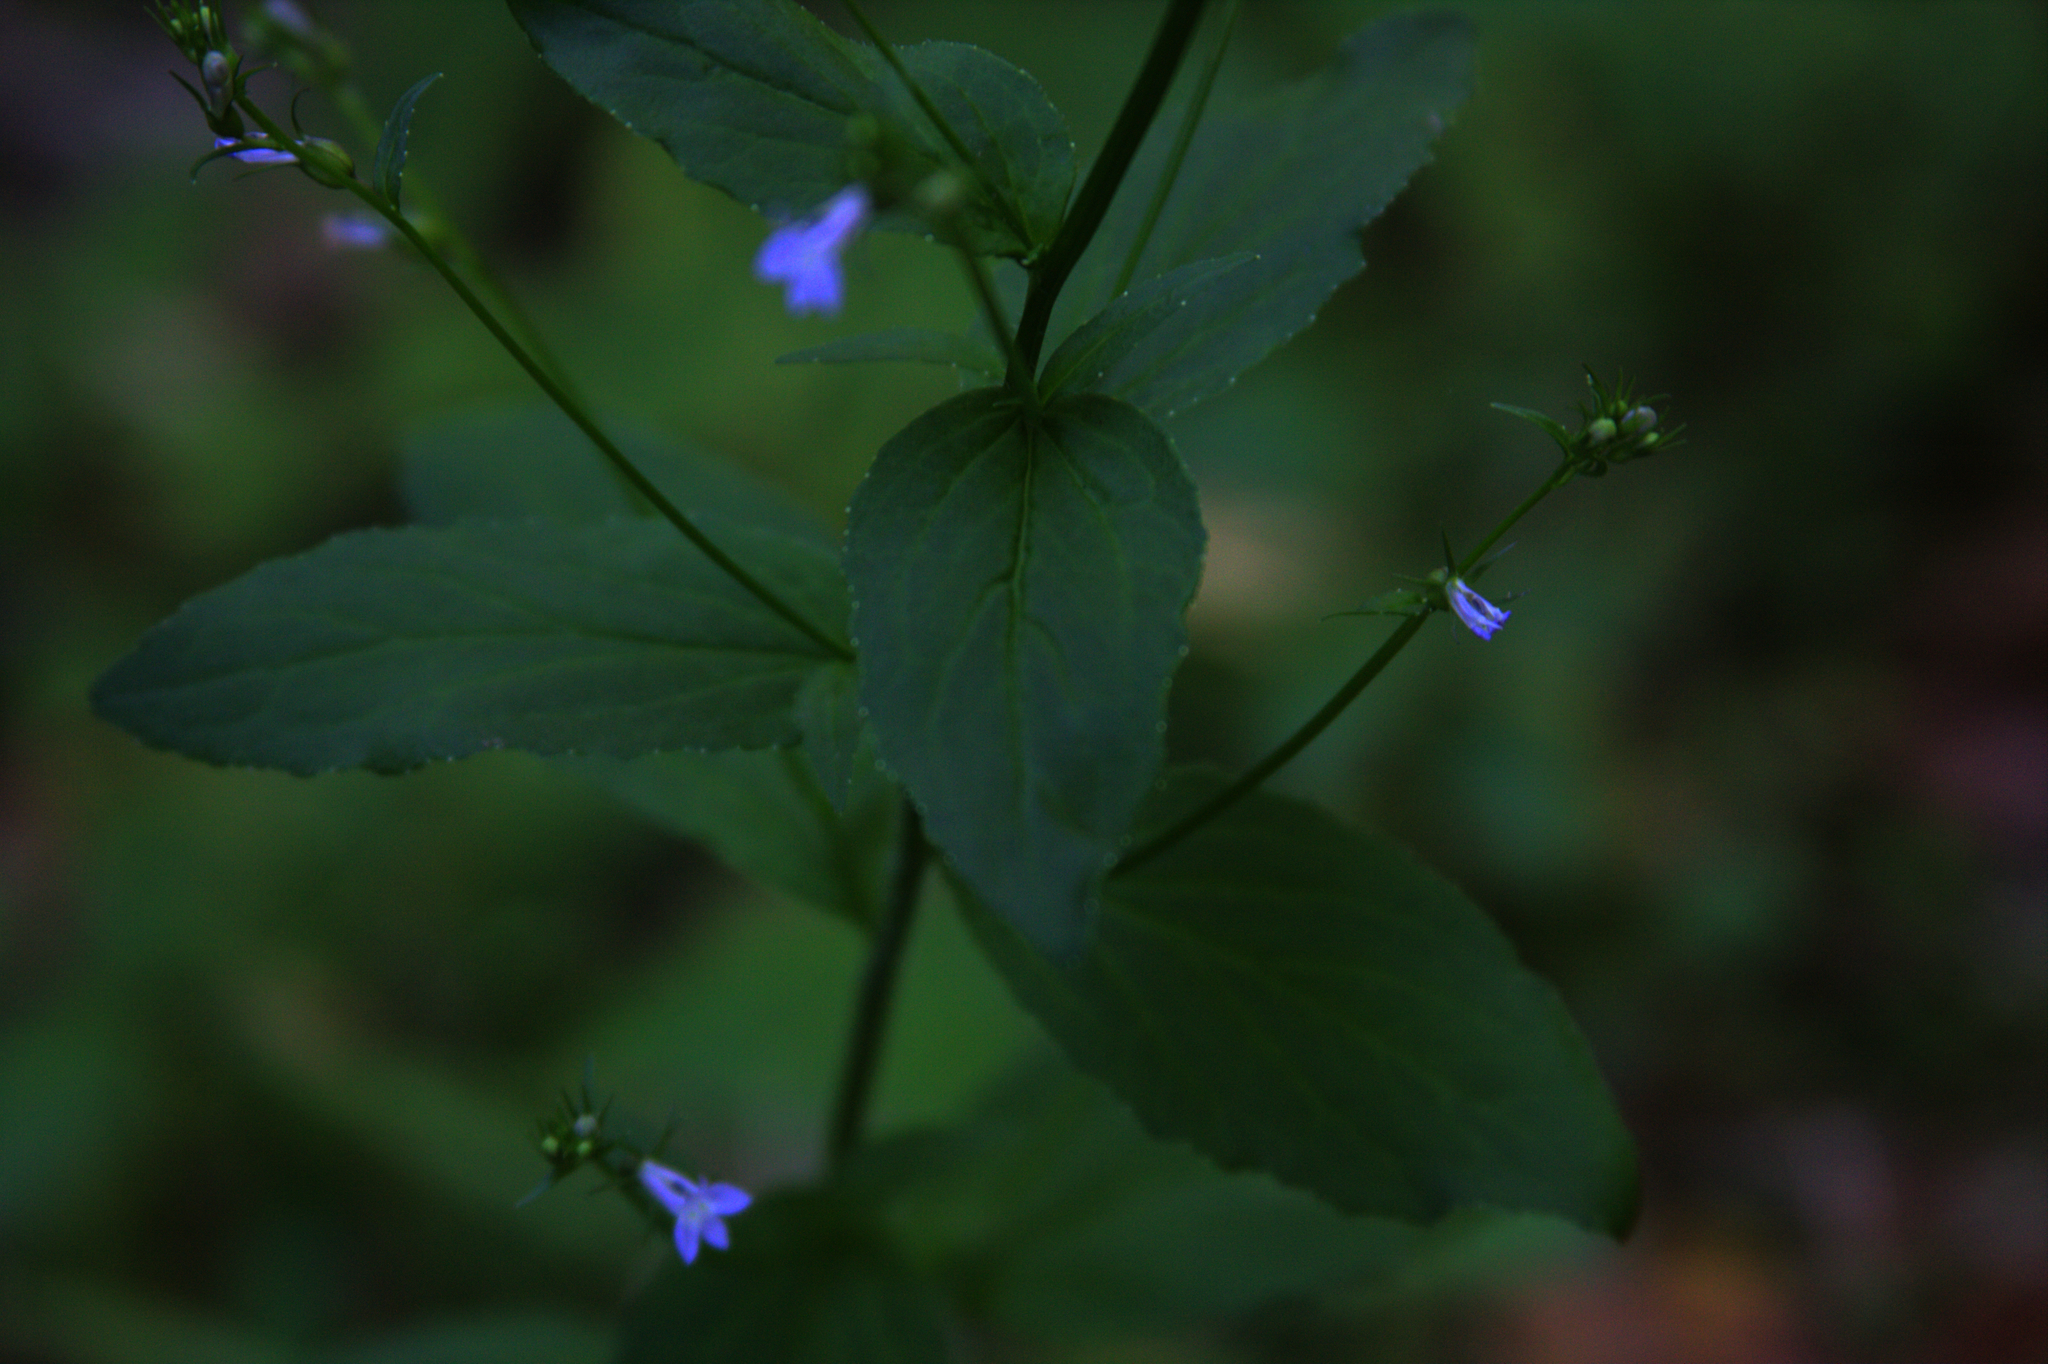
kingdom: Plantae
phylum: Tracheophyta
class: Magnoliopsida
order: Asterales
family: Campanulaceae
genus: Lobelia
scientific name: Lobelia inflata
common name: Indian tobacco
